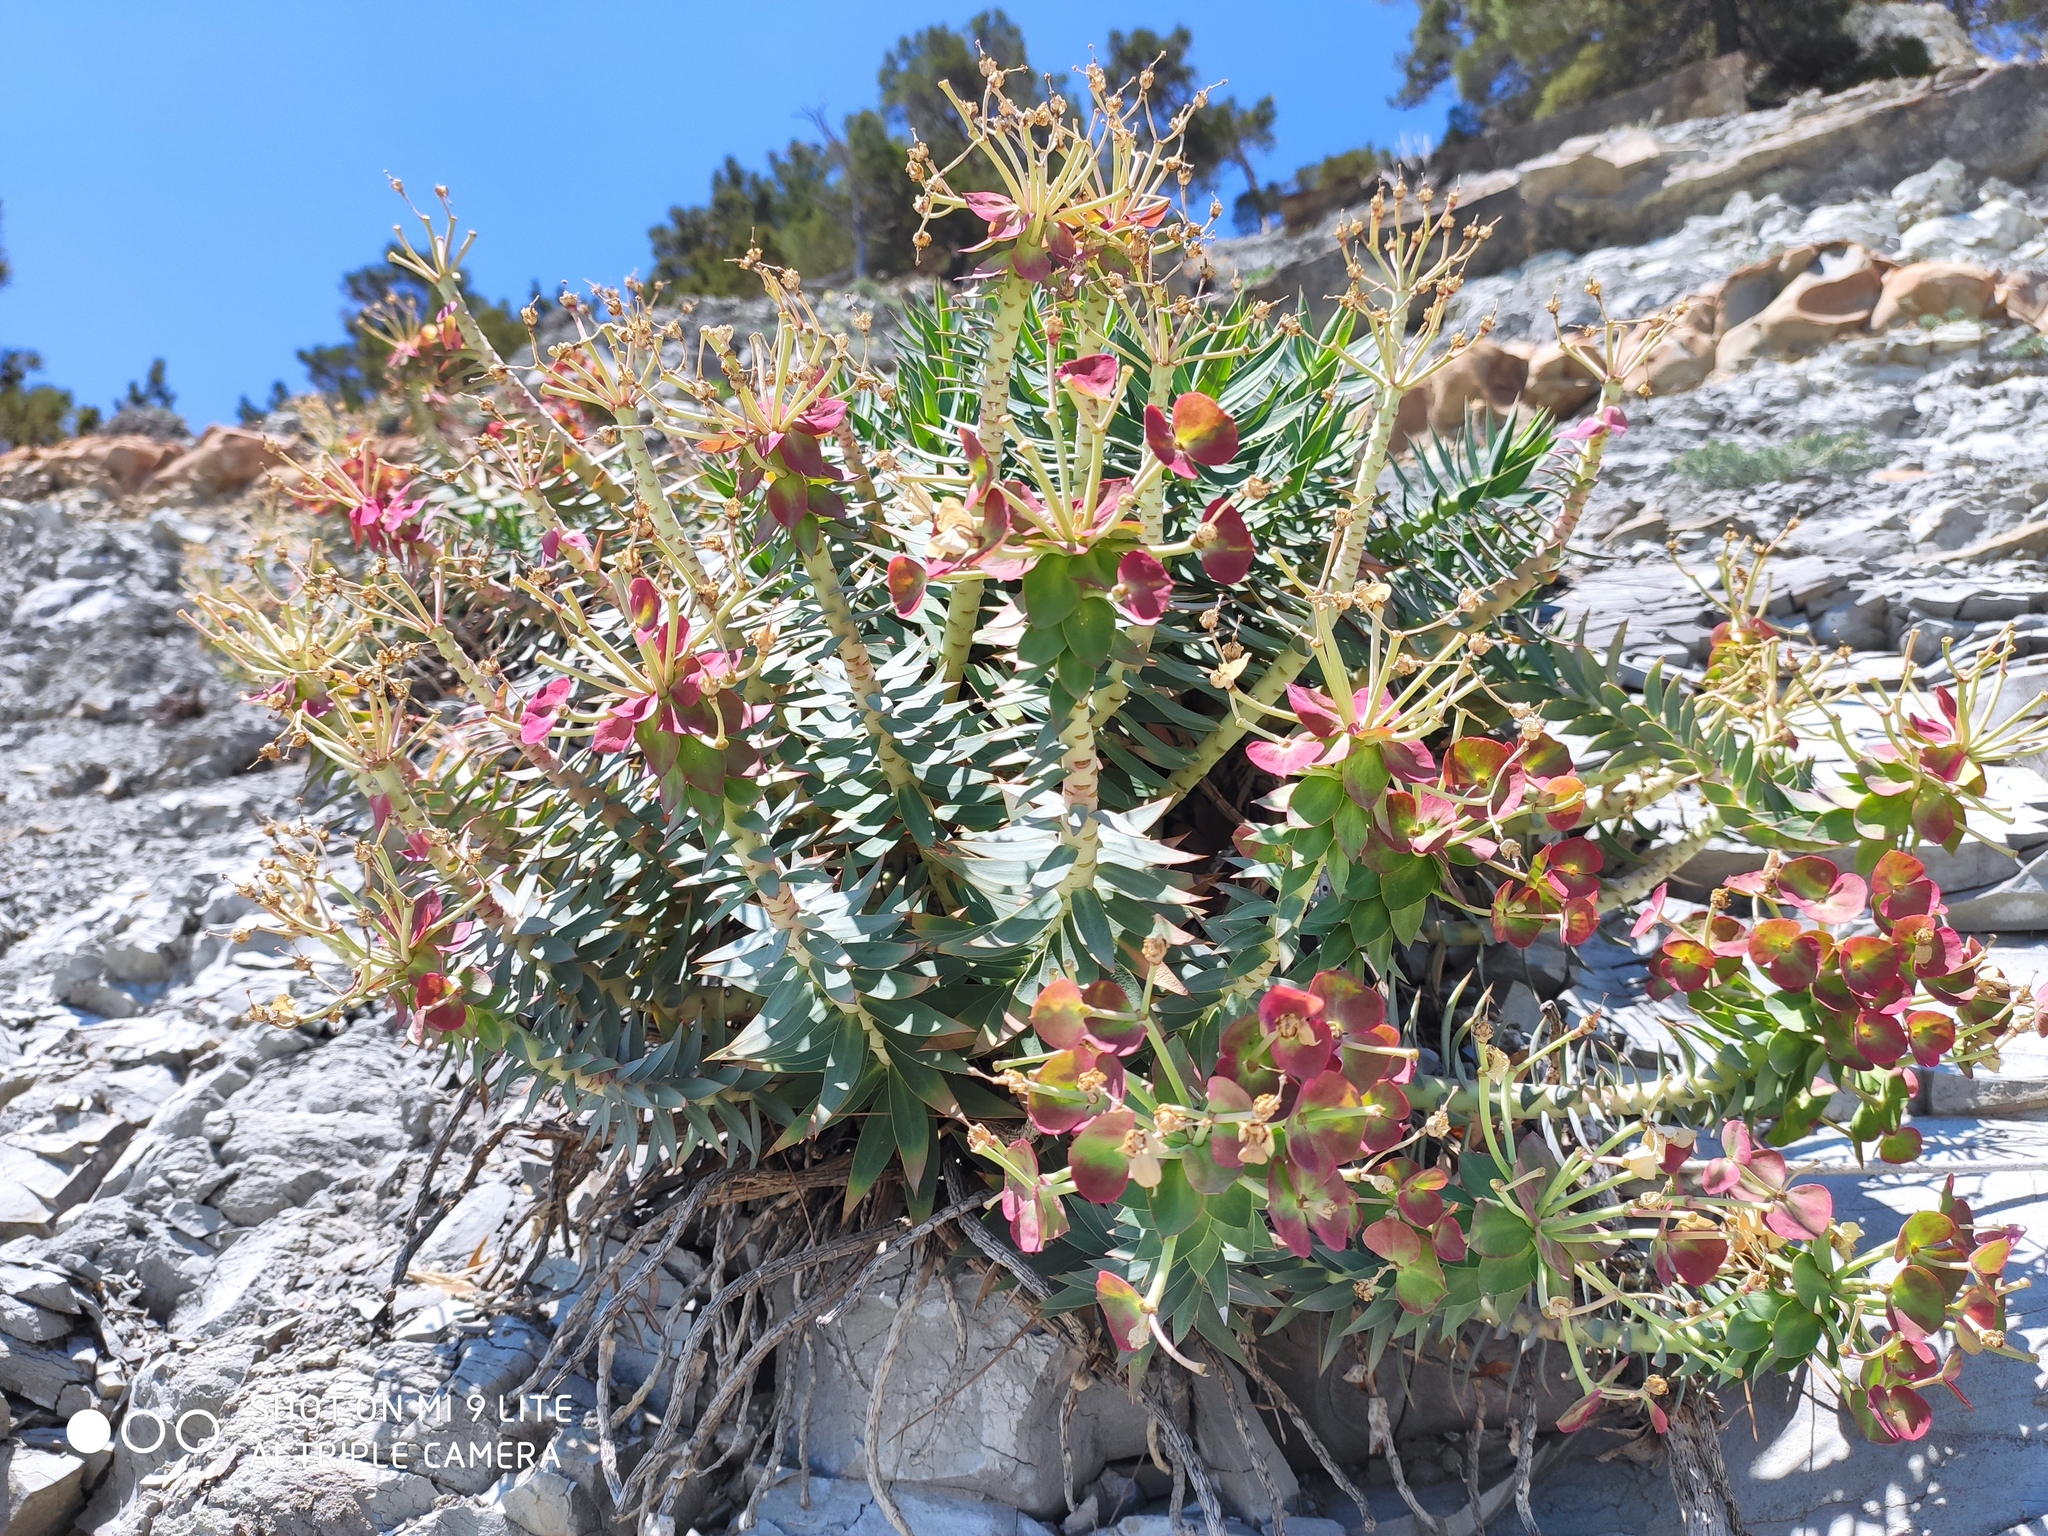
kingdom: Plantae
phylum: Tracheophyta
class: Magnoliopsida
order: Malpighiales
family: Euphorbiaceae
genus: Euphorbia
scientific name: Euphorbia rigida
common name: Upright myrtle spurge
